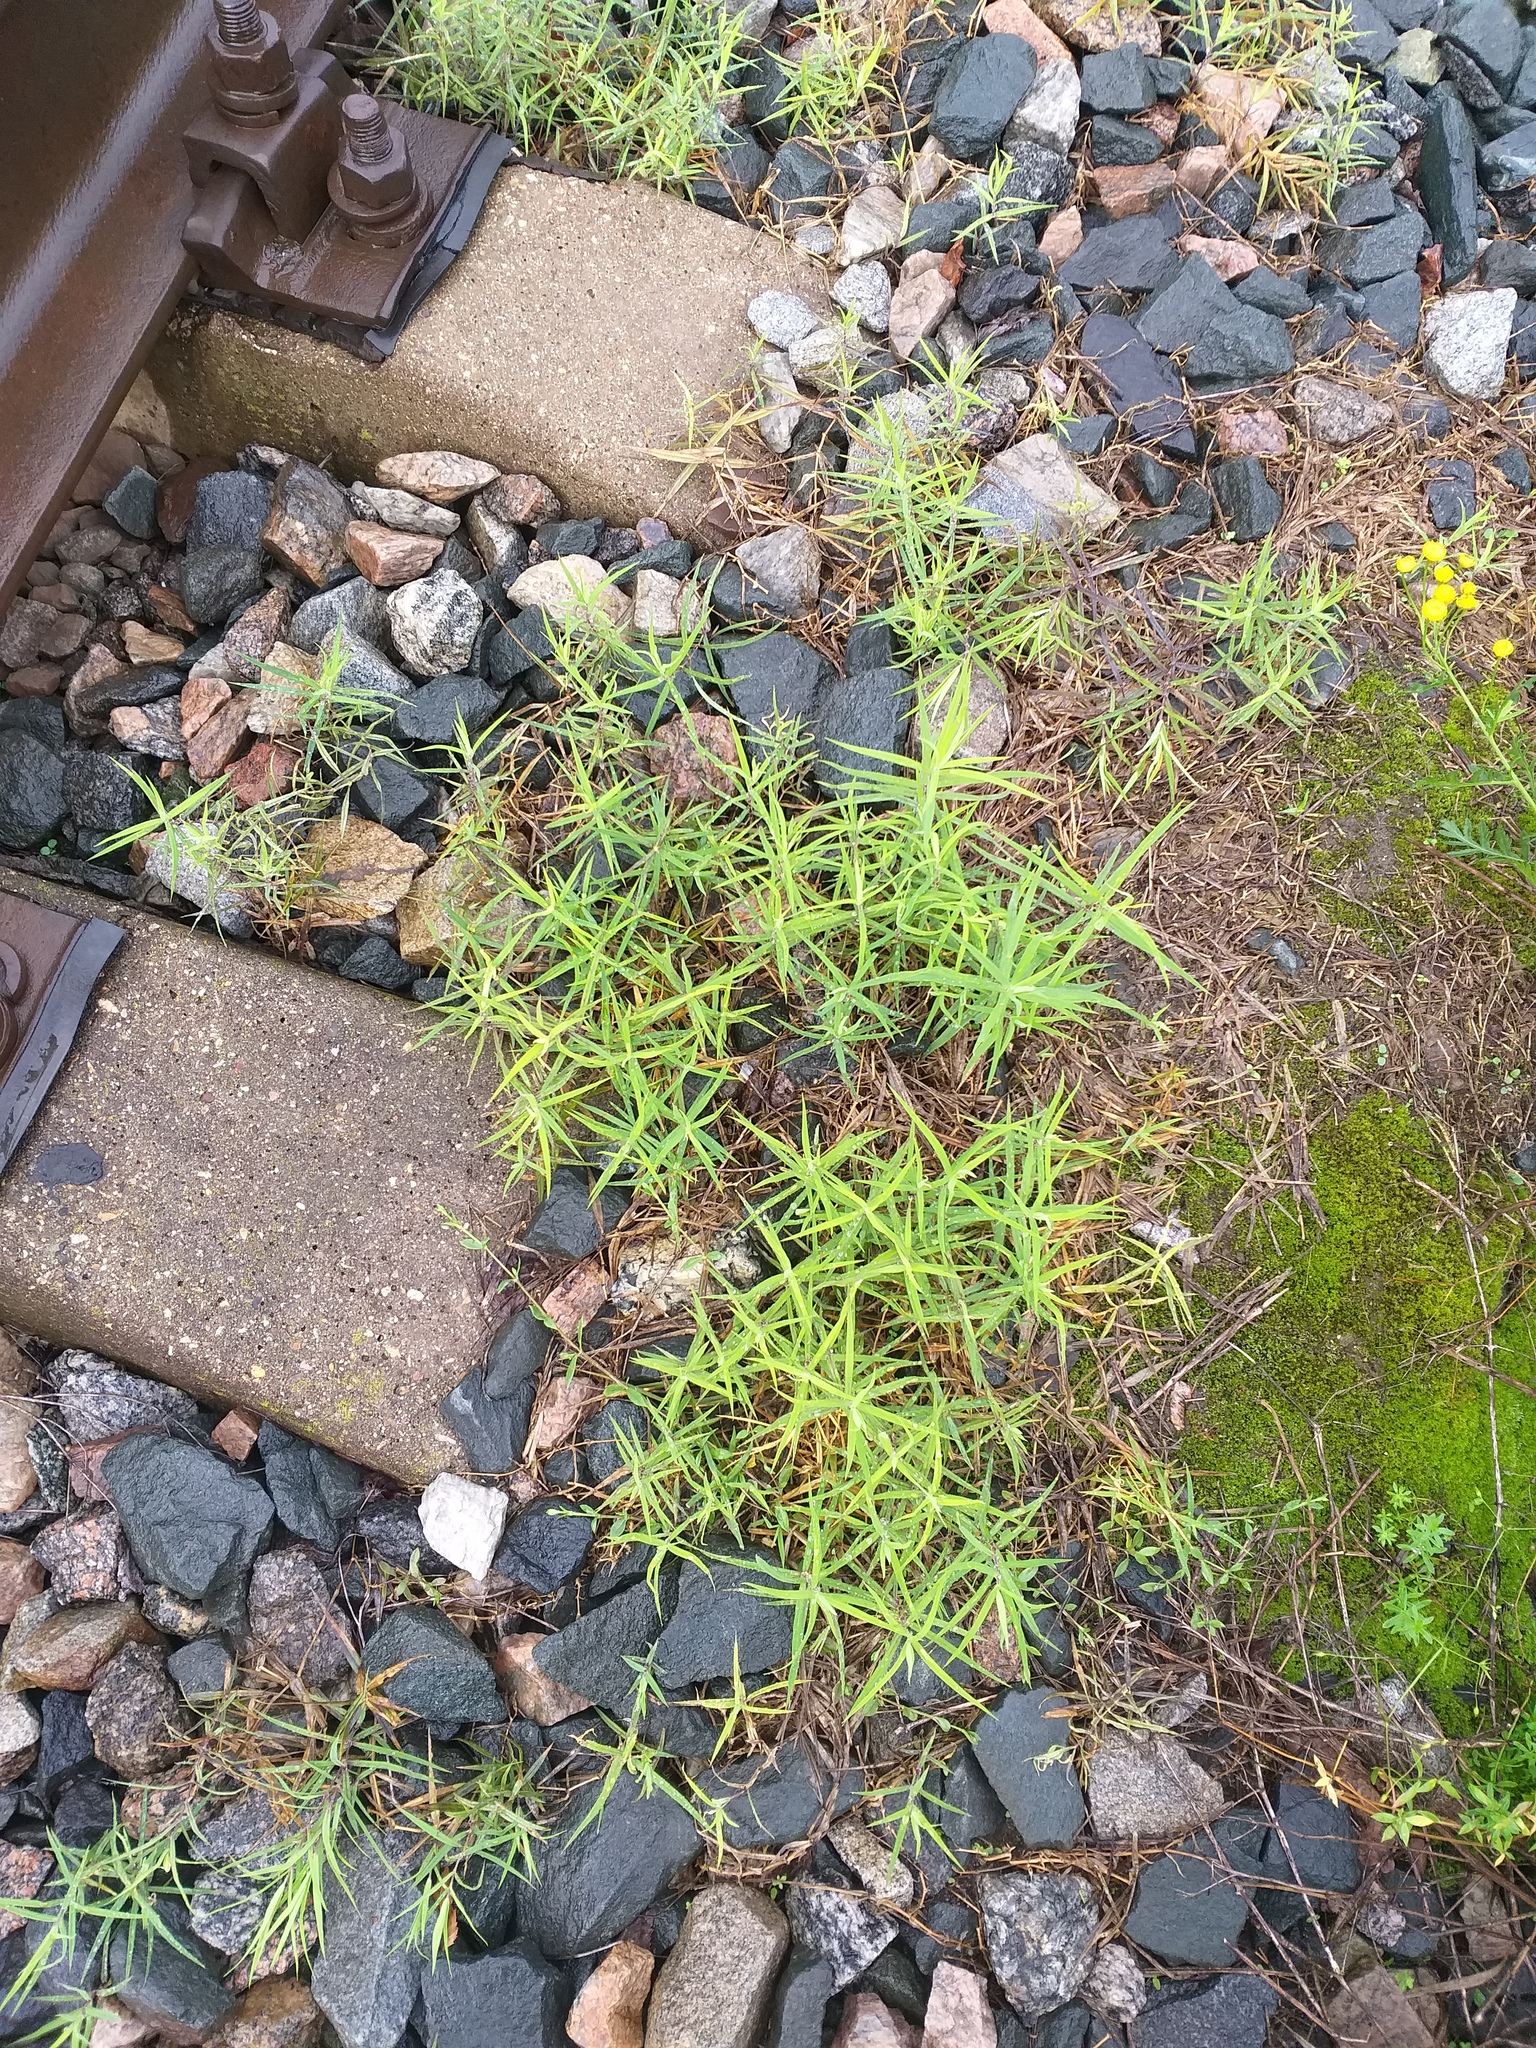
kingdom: Plantae
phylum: Tracheophyta
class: Magnoliopsida
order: Caryophyllales
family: Caryophyllaceae
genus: Rabelera
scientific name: Rabelera holostea
